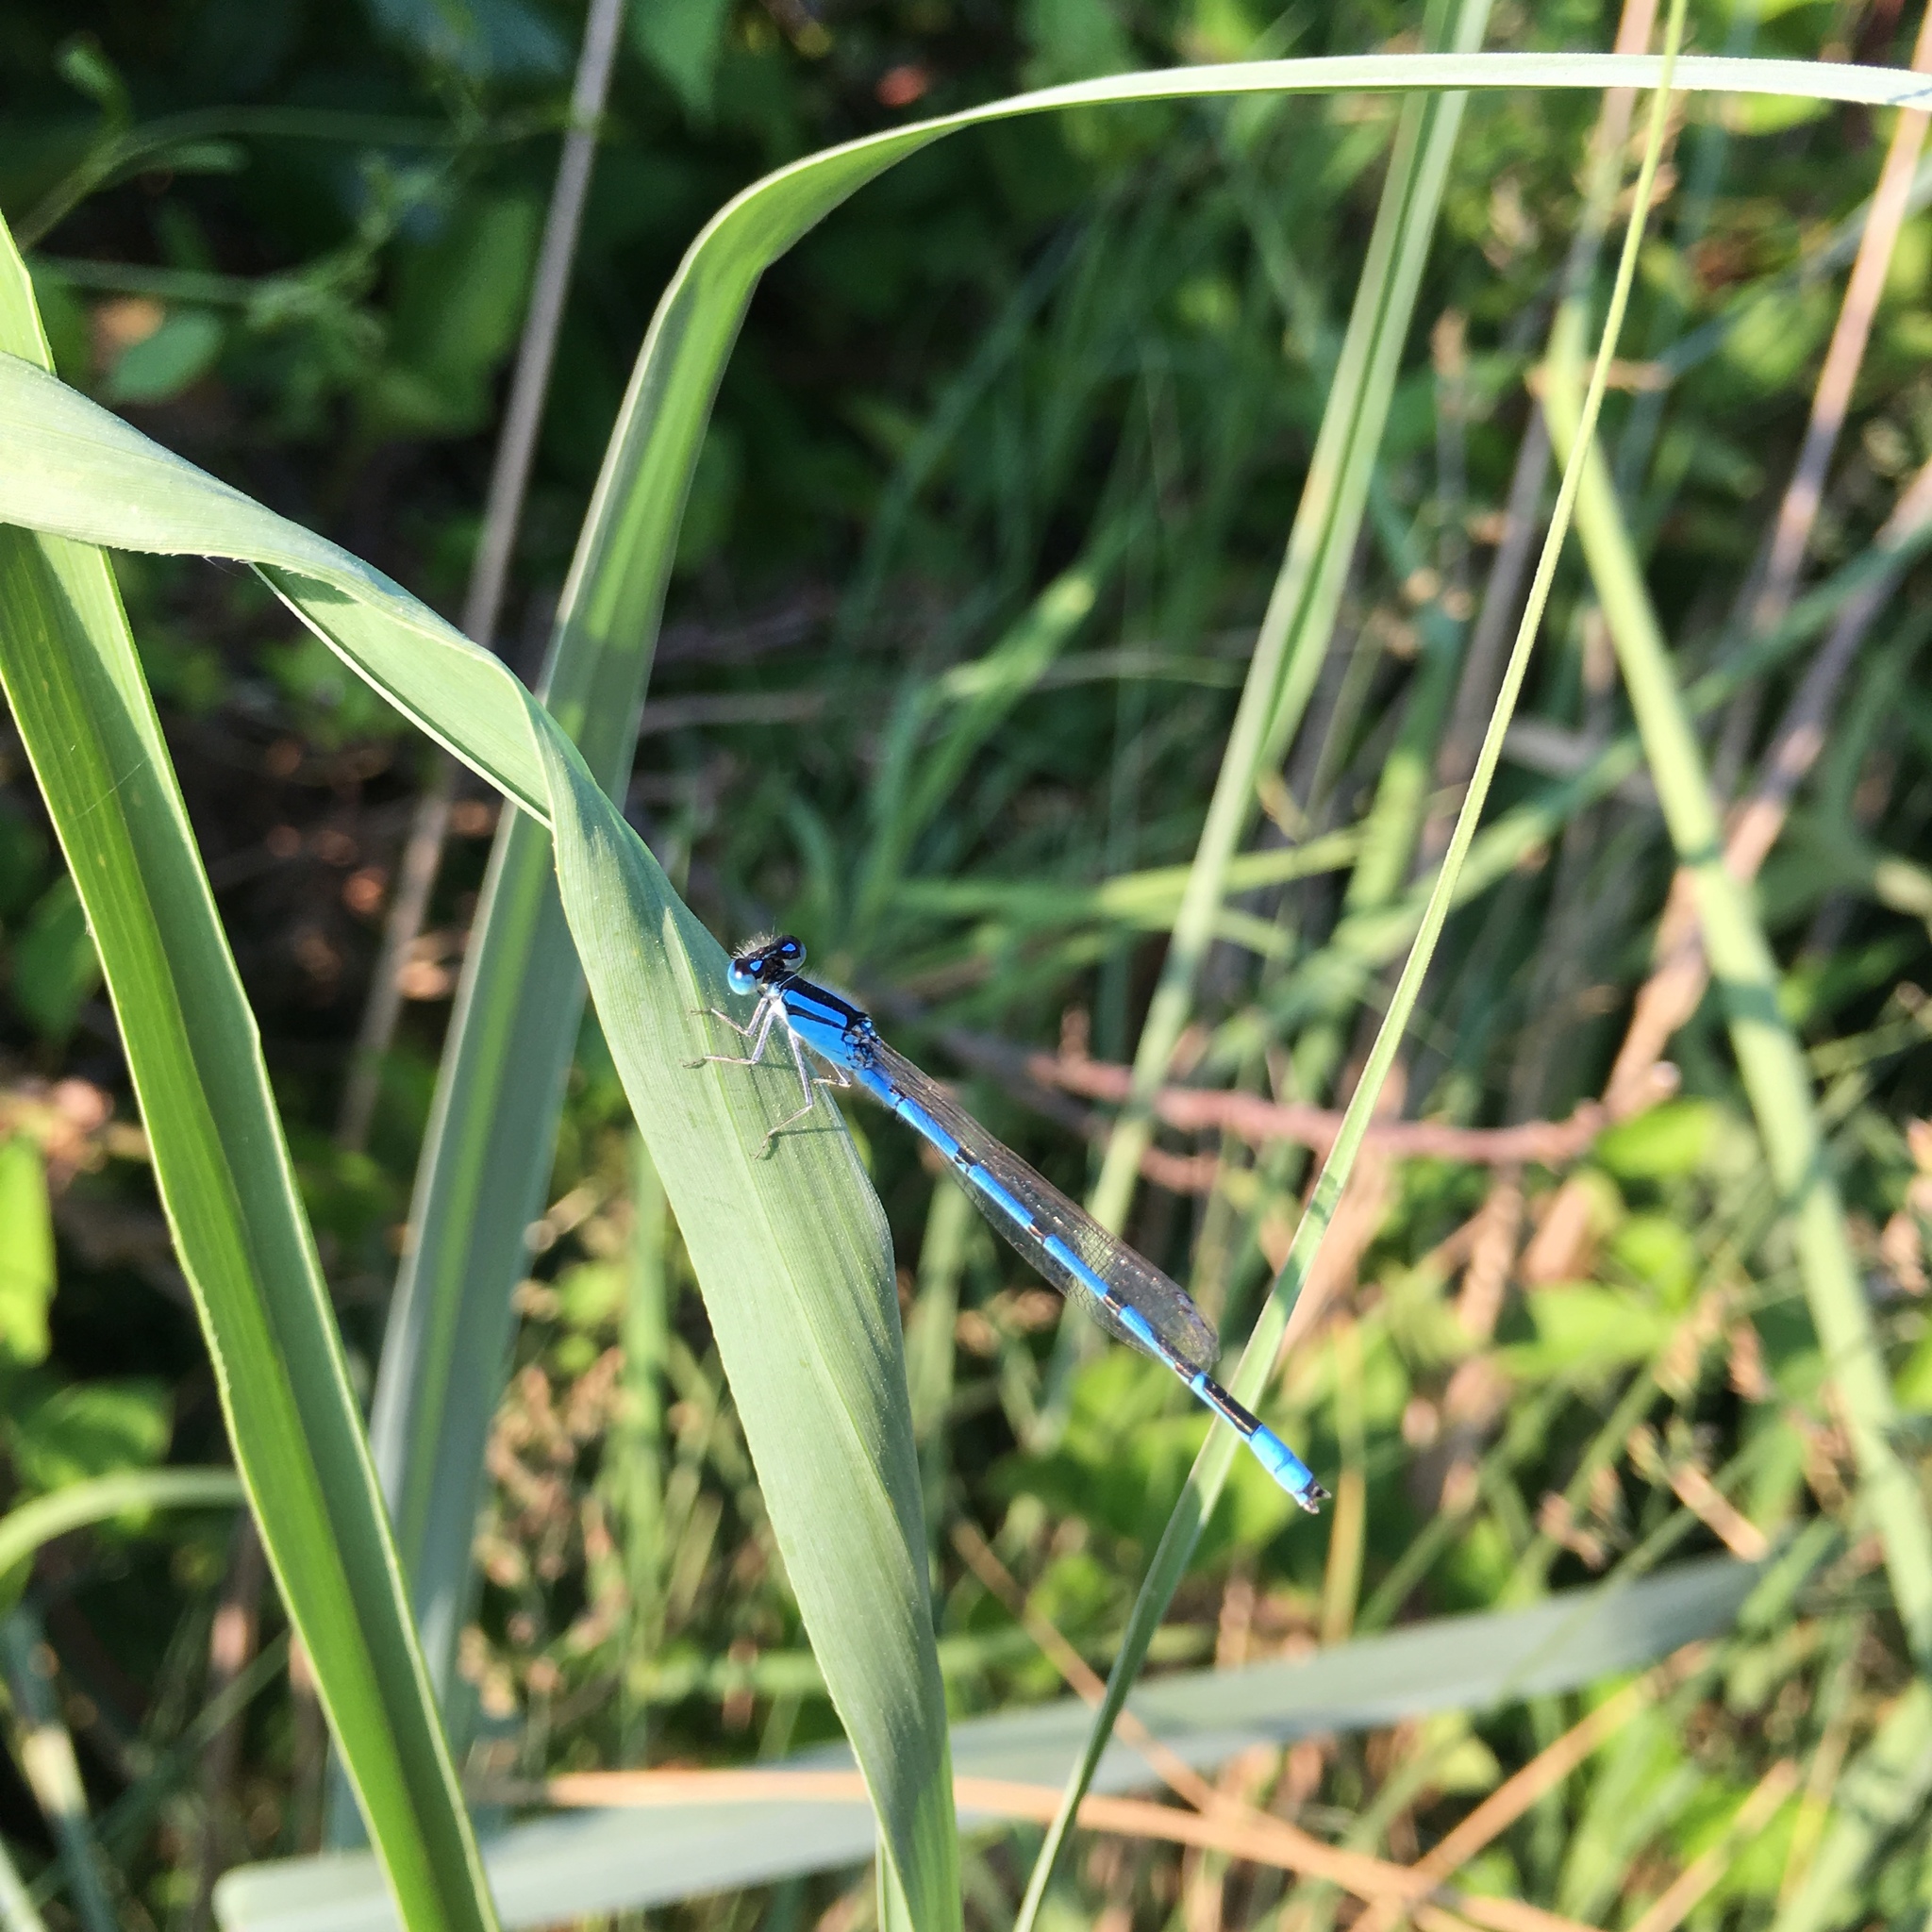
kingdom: Animalia
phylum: Arthropoda
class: Insecta
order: Odonata
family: Coenagrionidae
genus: Enallagma
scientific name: Enallagma civile
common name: Damselfly
